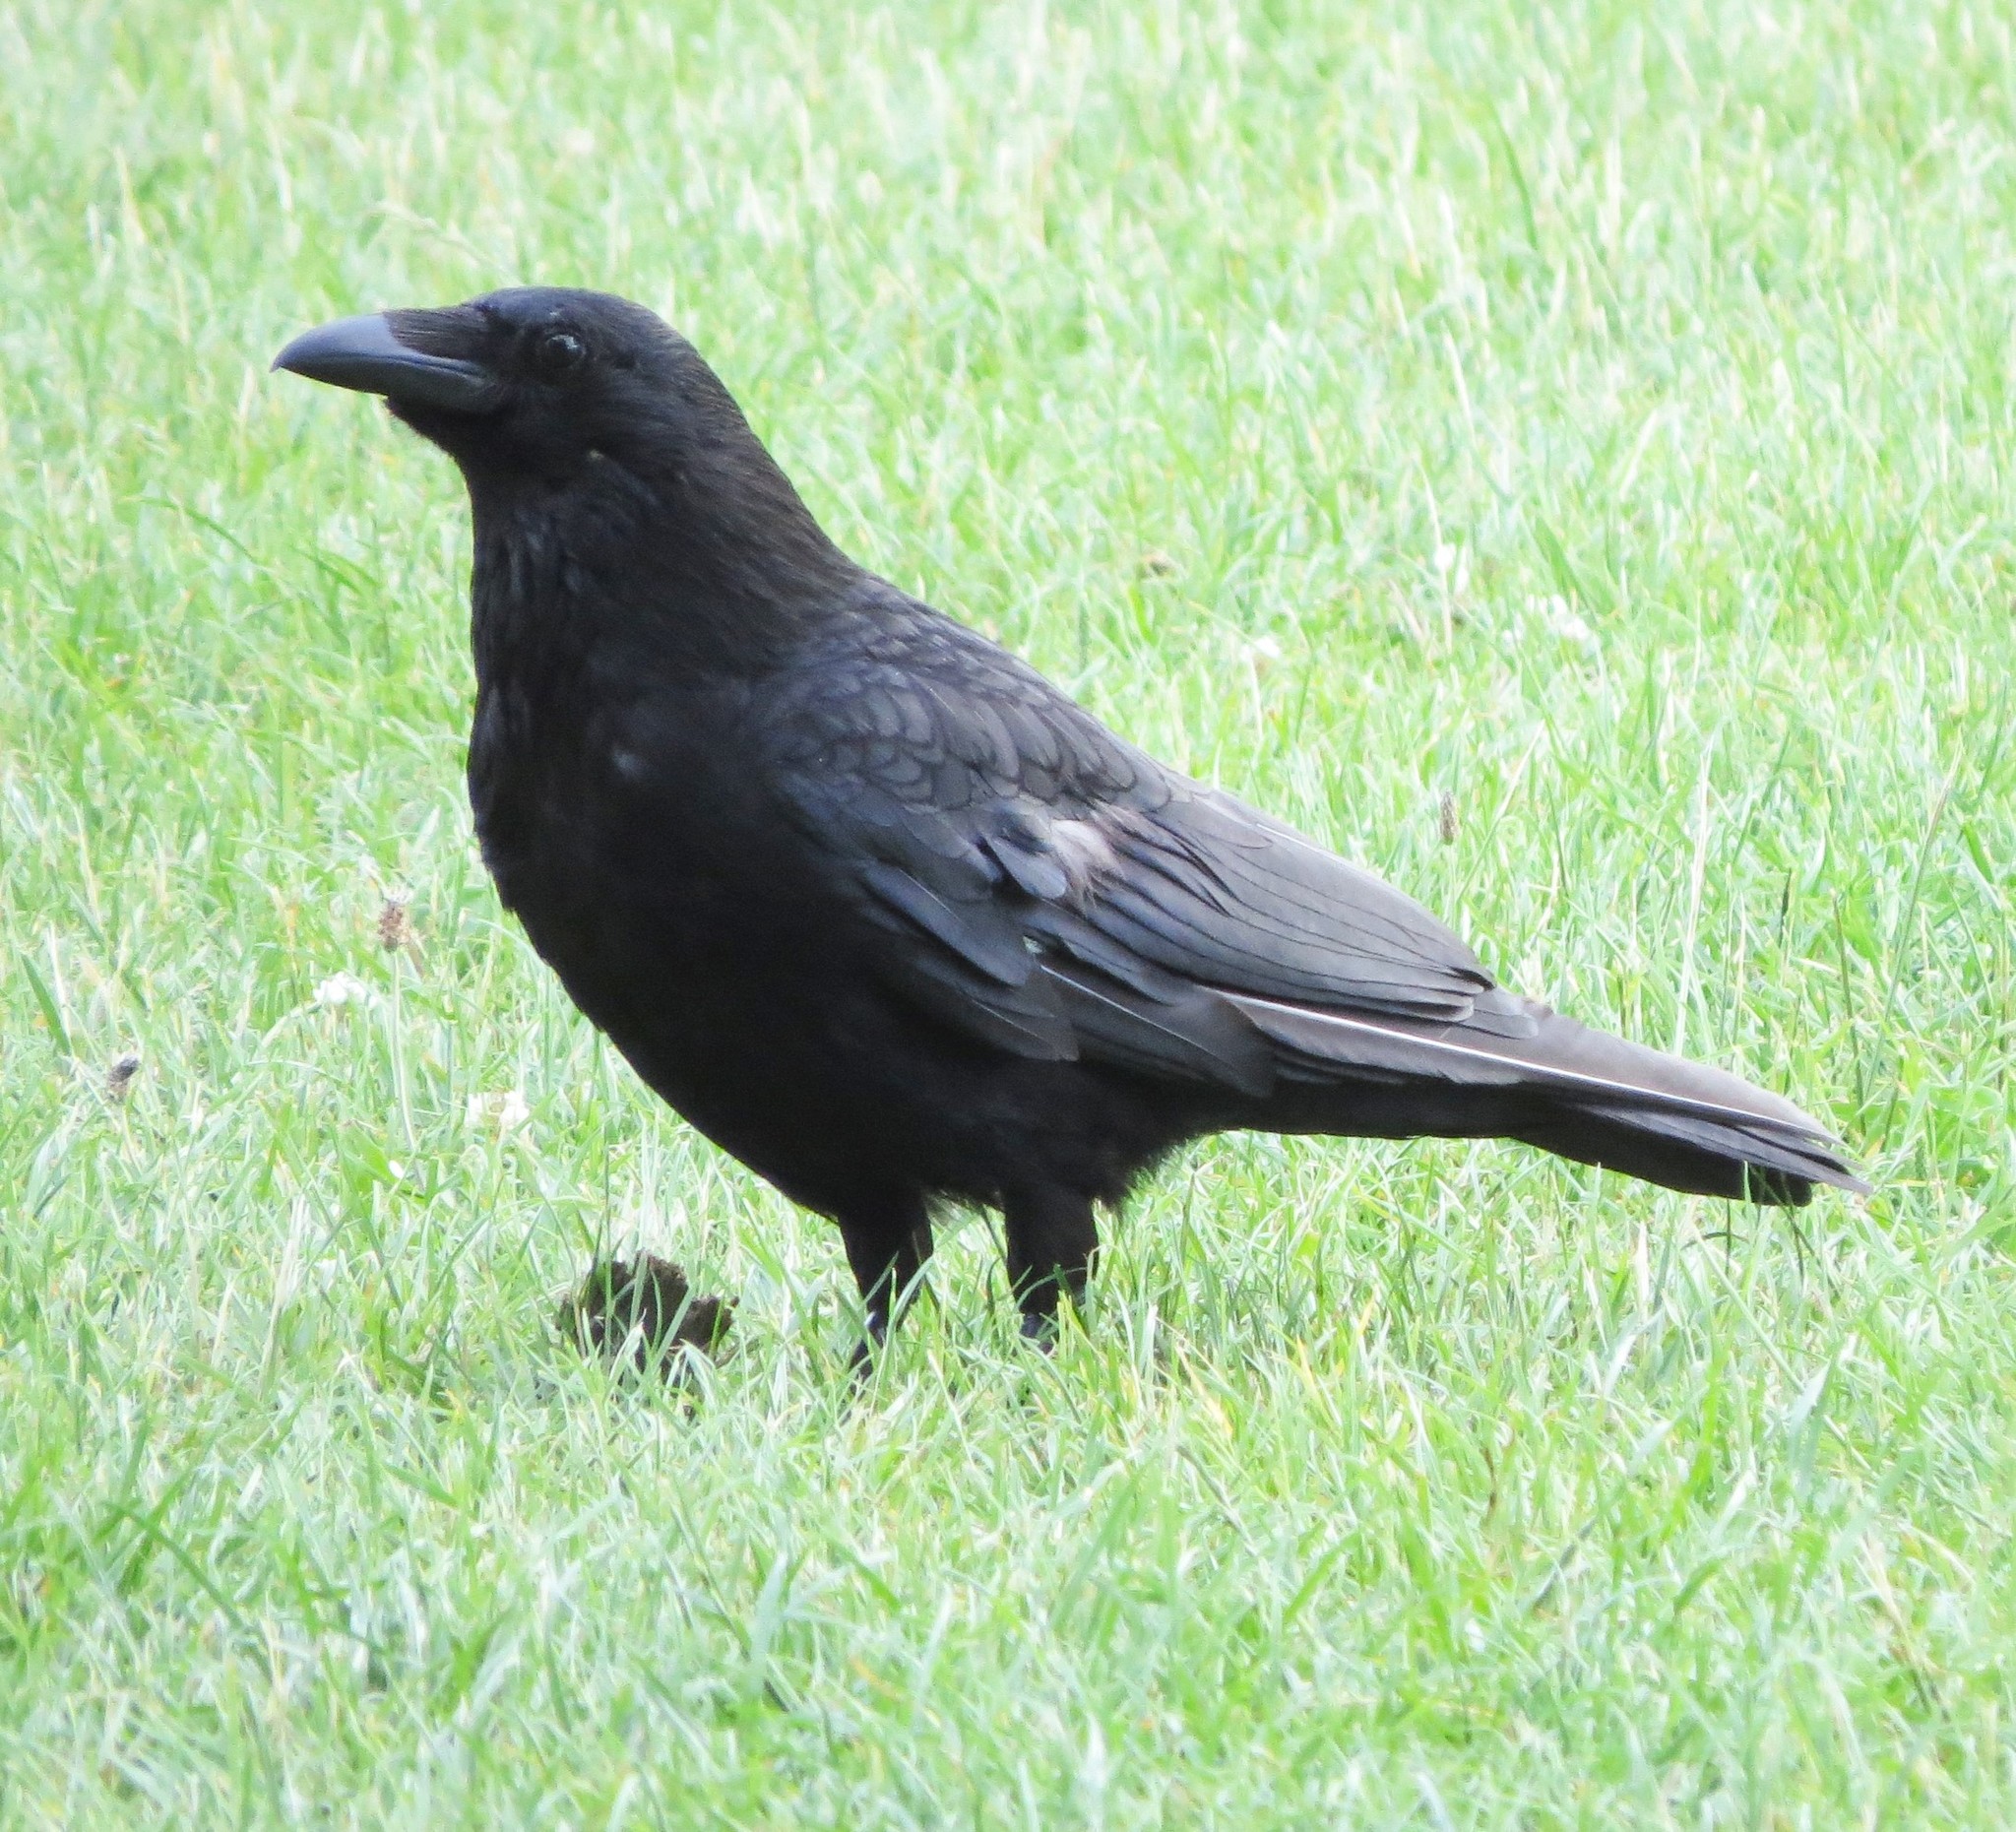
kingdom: Animalia
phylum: Chordata
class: Aves
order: Passeriformes
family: Corvidae
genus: Corvus
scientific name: Corvus corone
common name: Carrion crow
